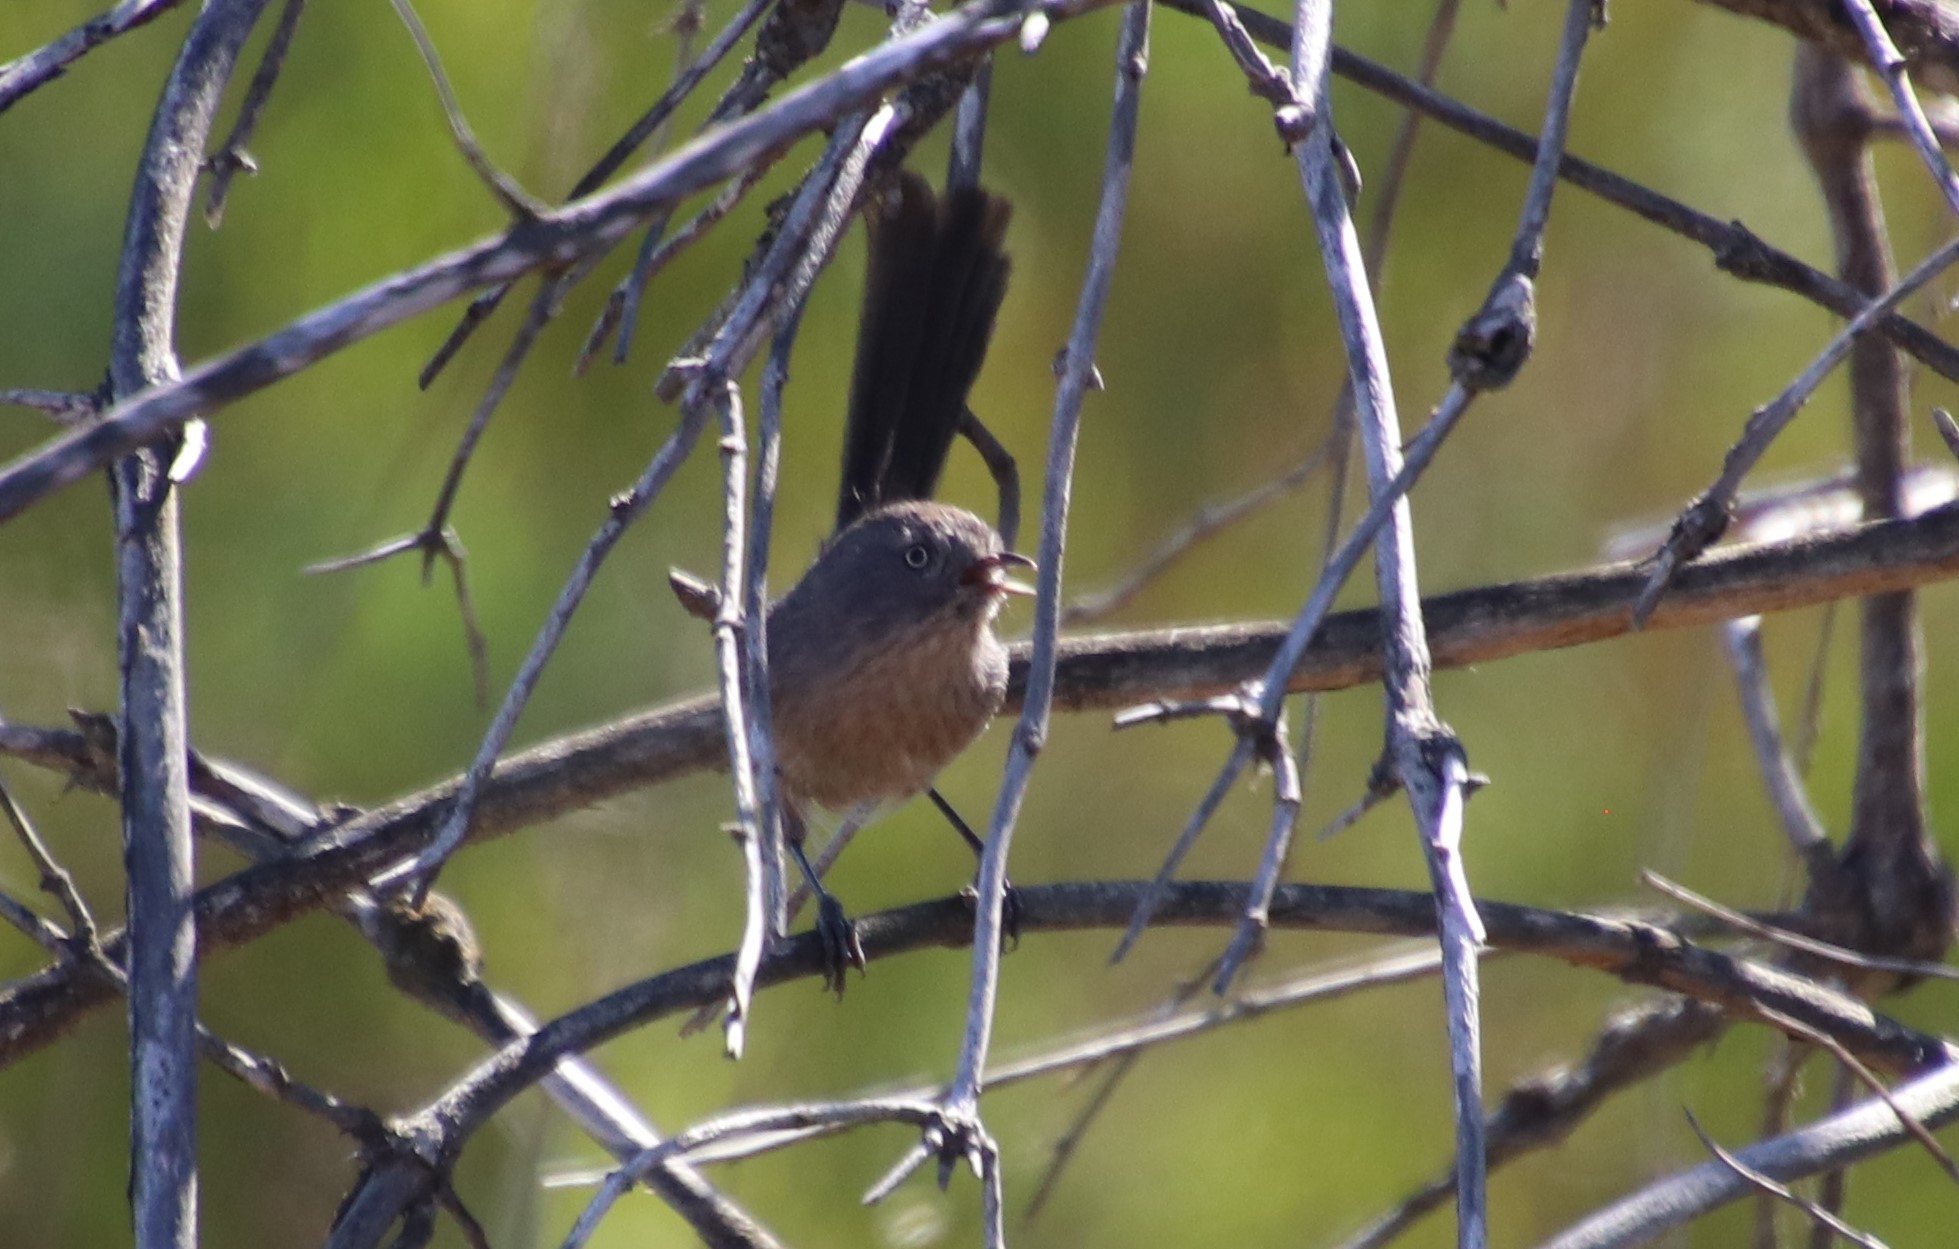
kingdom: Animalia
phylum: Chordata
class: Aves
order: Passeriformes
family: Sylviidae
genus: Chamaea
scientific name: Chamaea fasciata
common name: Wrentit
